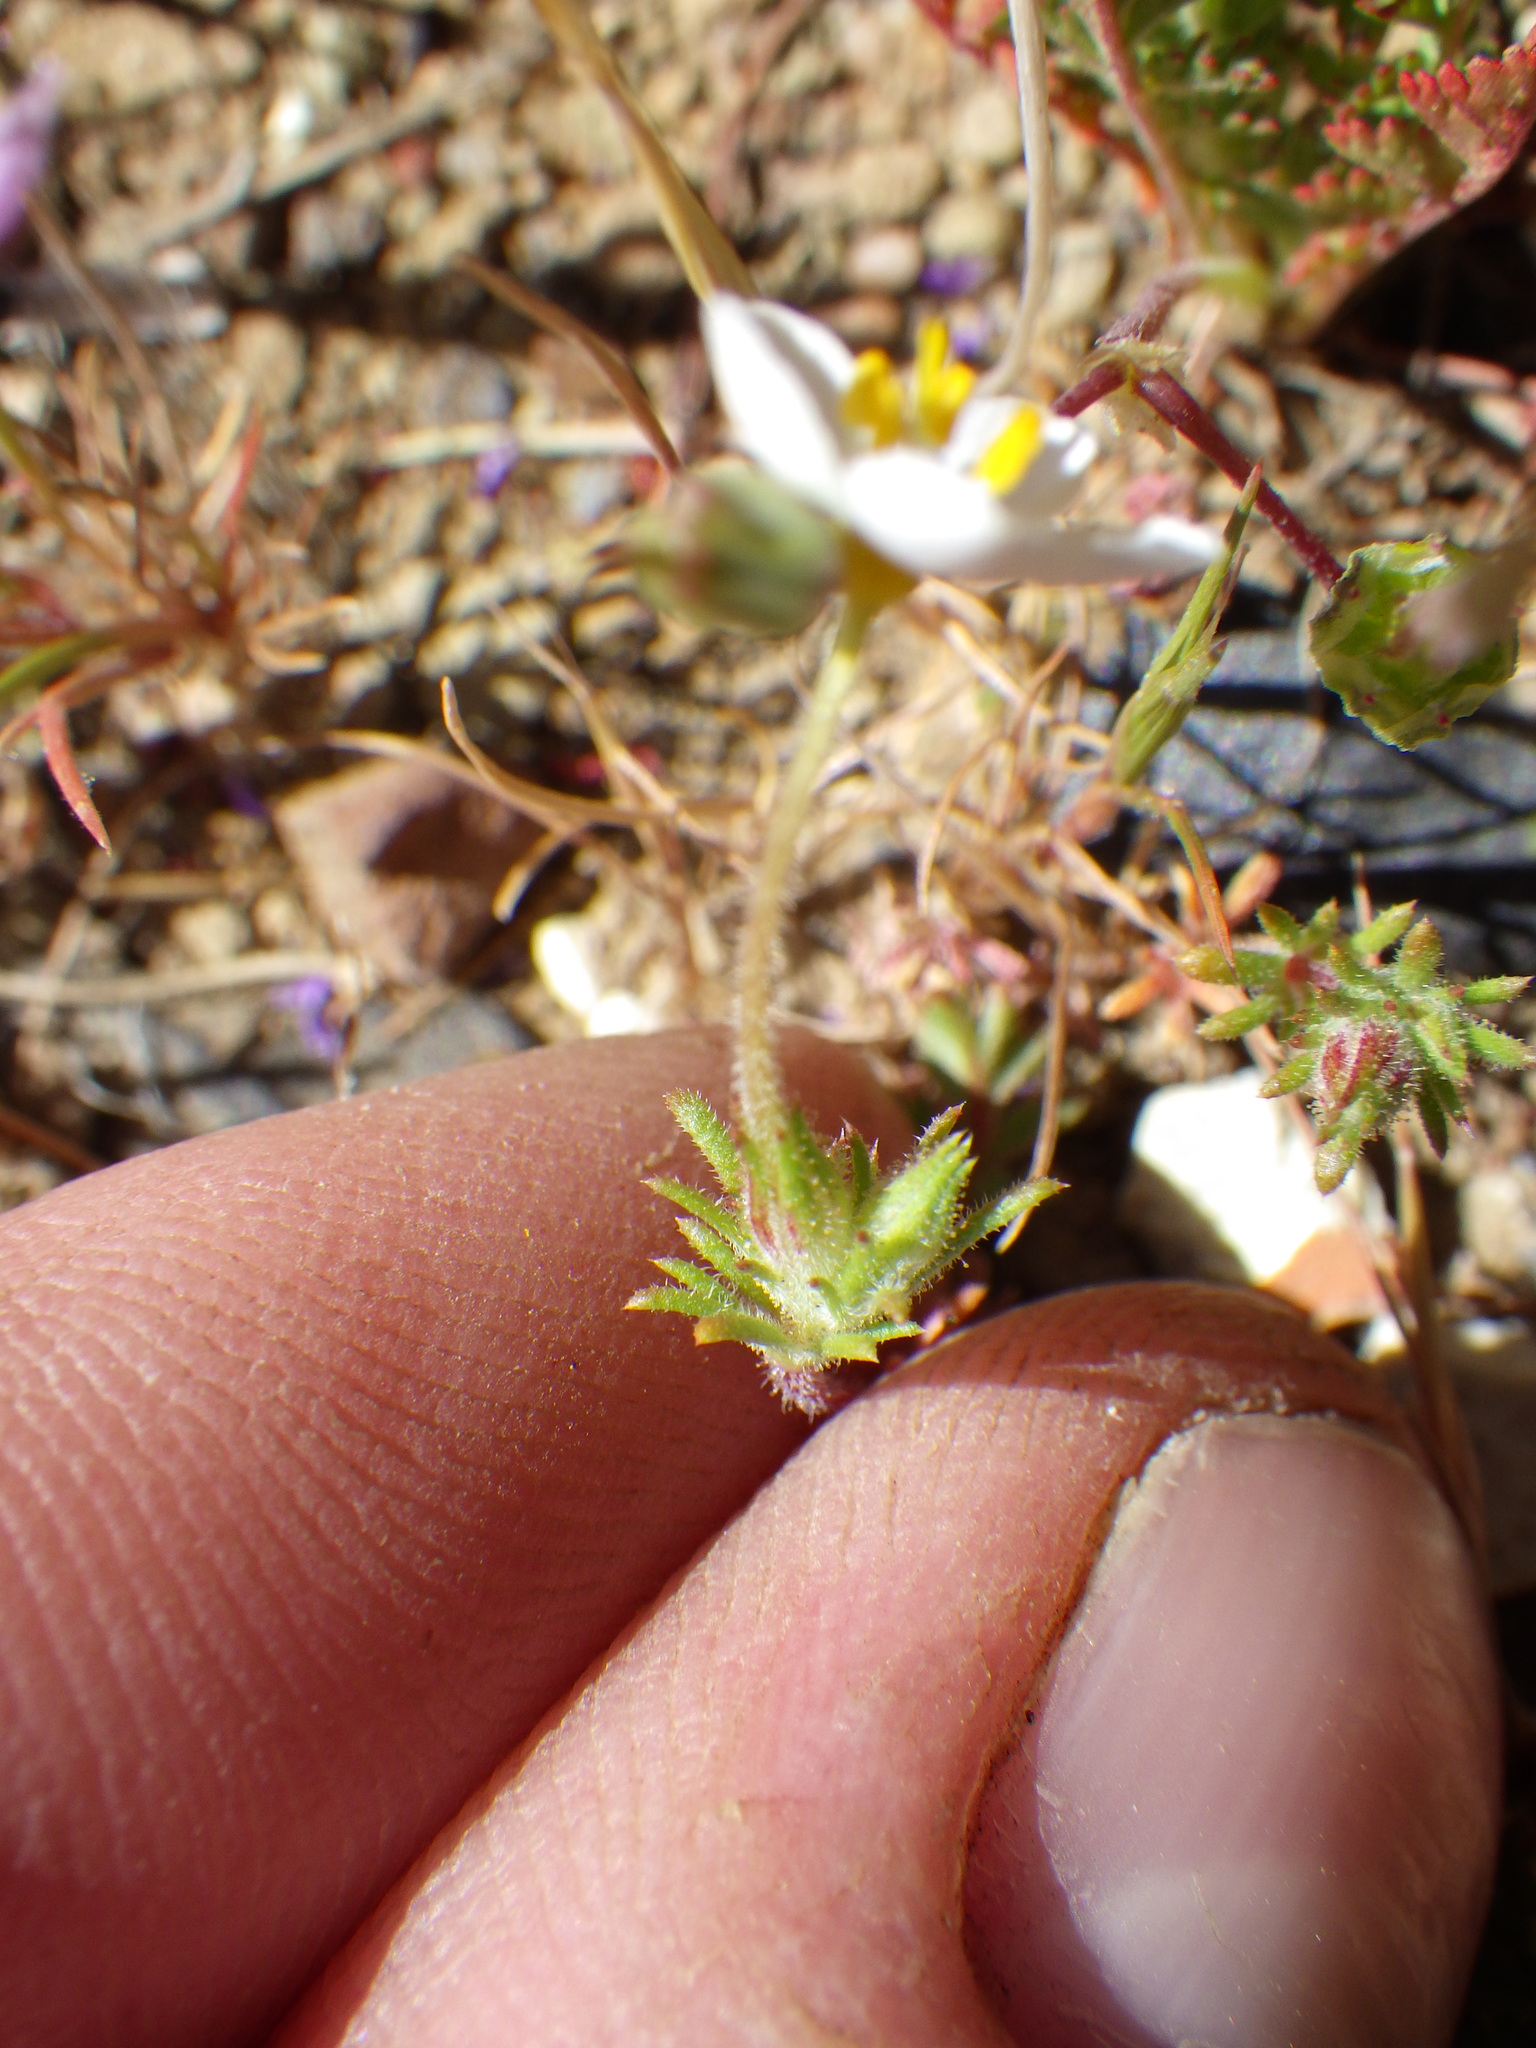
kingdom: Plantae
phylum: Tracheophyta
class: Magnoliopsida
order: Ericales
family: Polemoniaceae
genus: Leptosiphon
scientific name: Leptosiphon parviflorus
